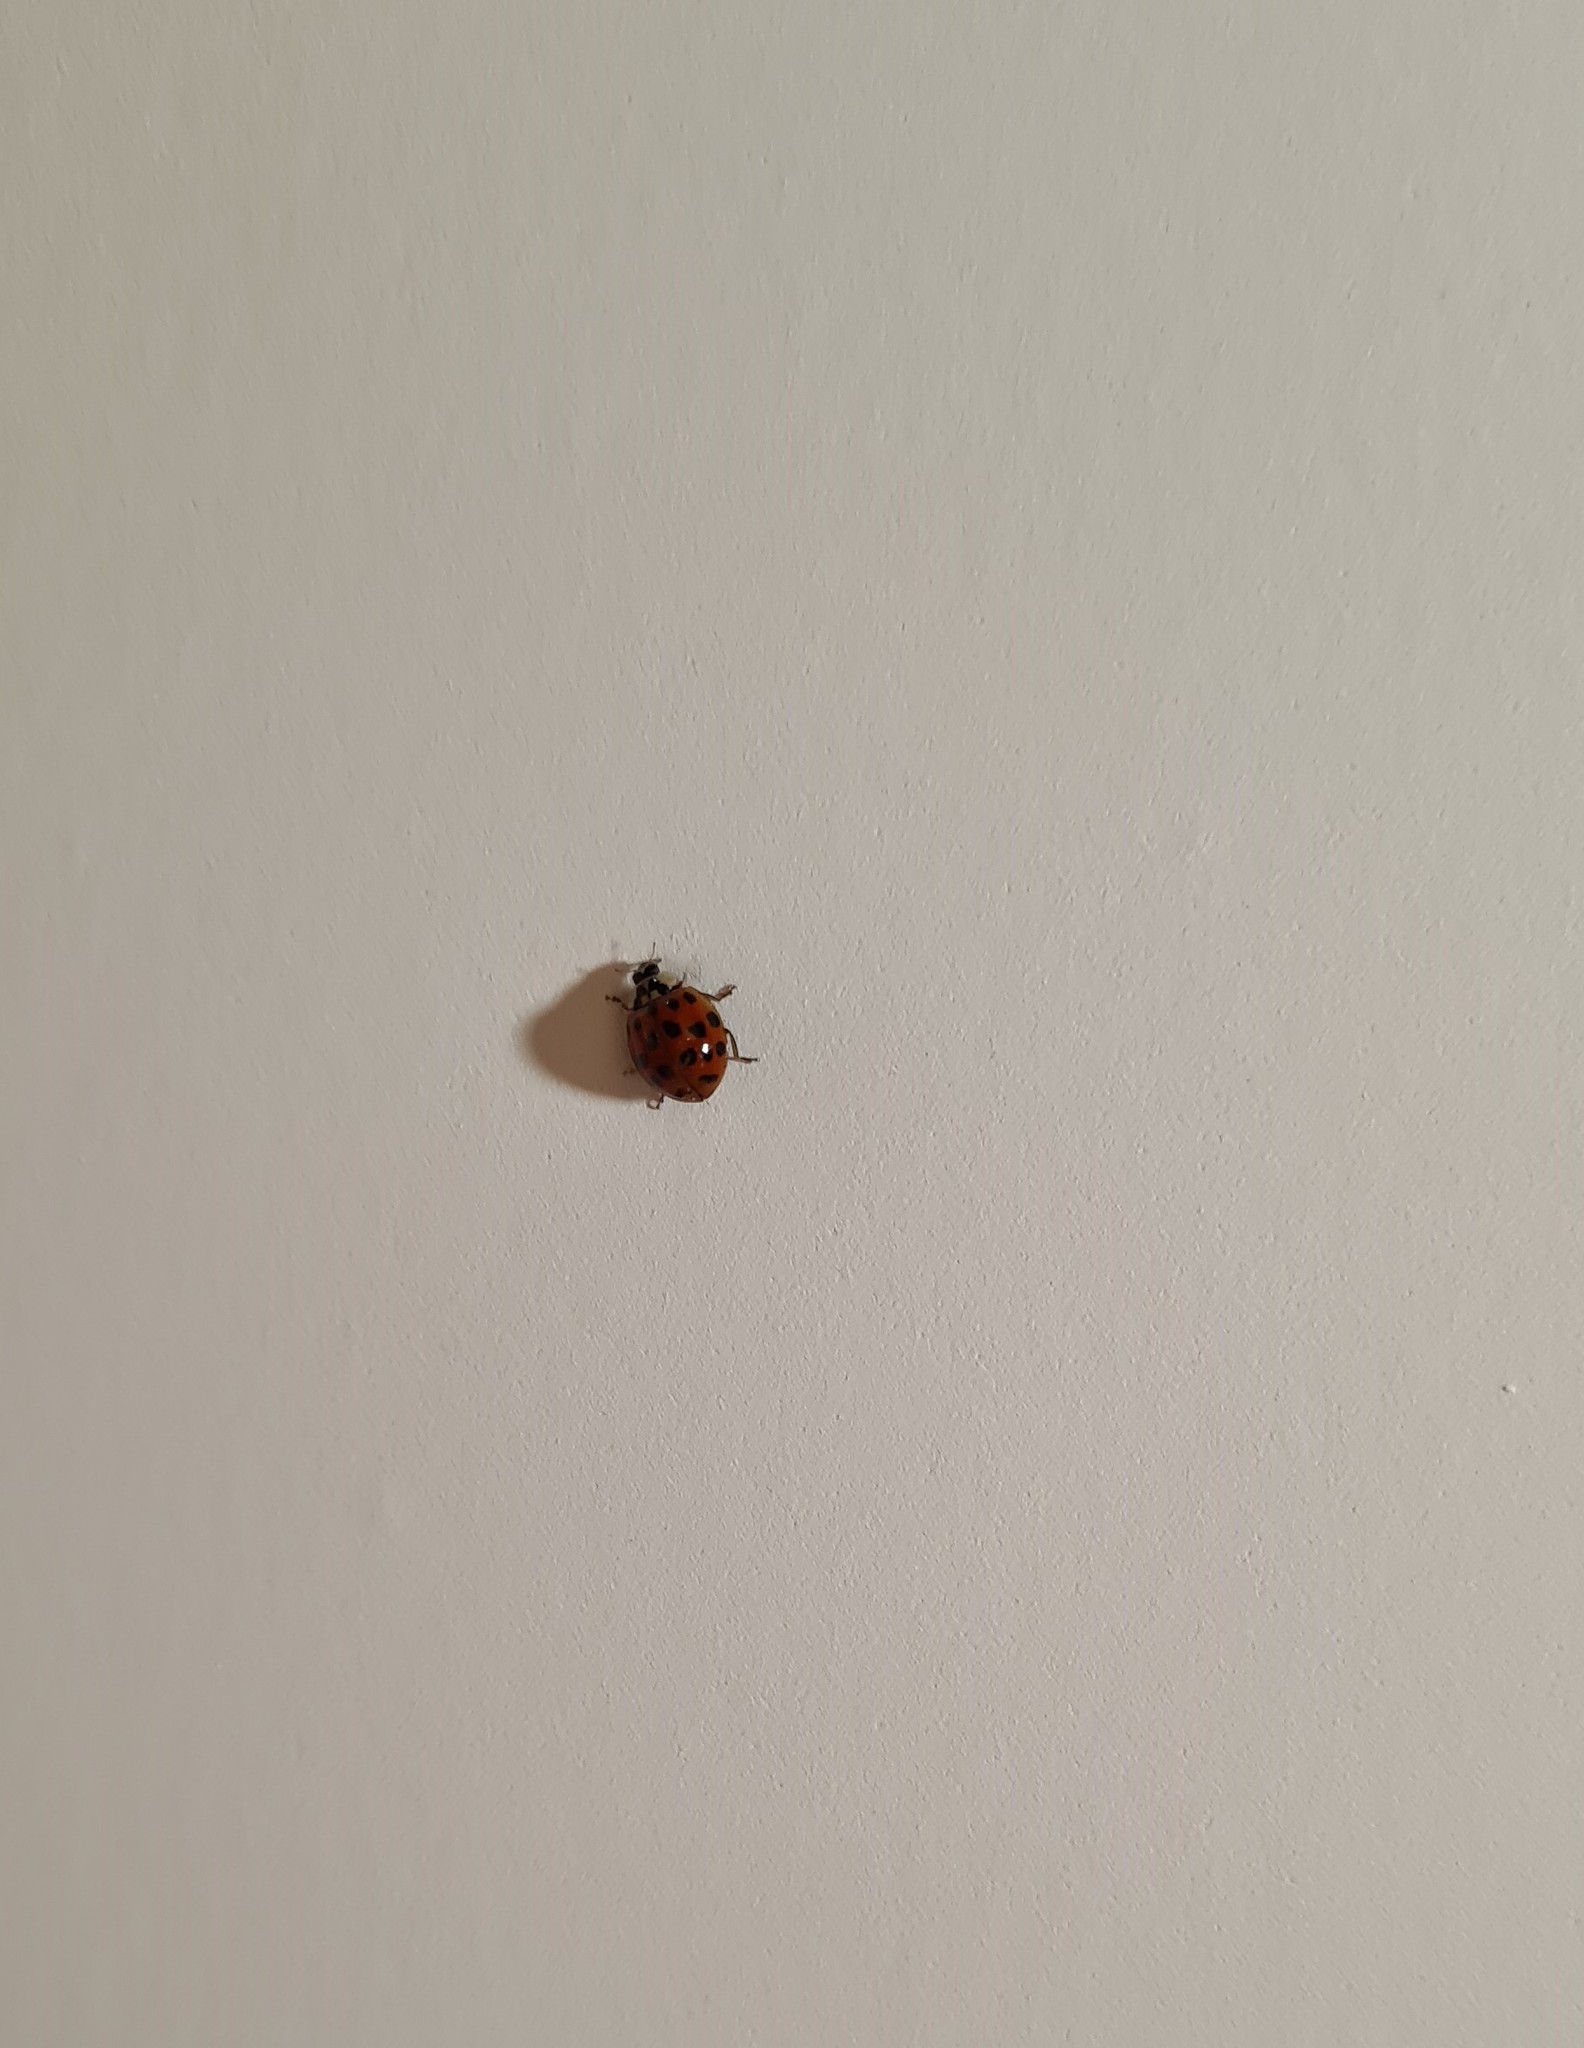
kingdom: Animalia
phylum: Arthropoda
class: Insecta
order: Coleoptera
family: Coccinellidae
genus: Harmonia
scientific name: Harmonia axyridis
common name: Harlequin ladybird
